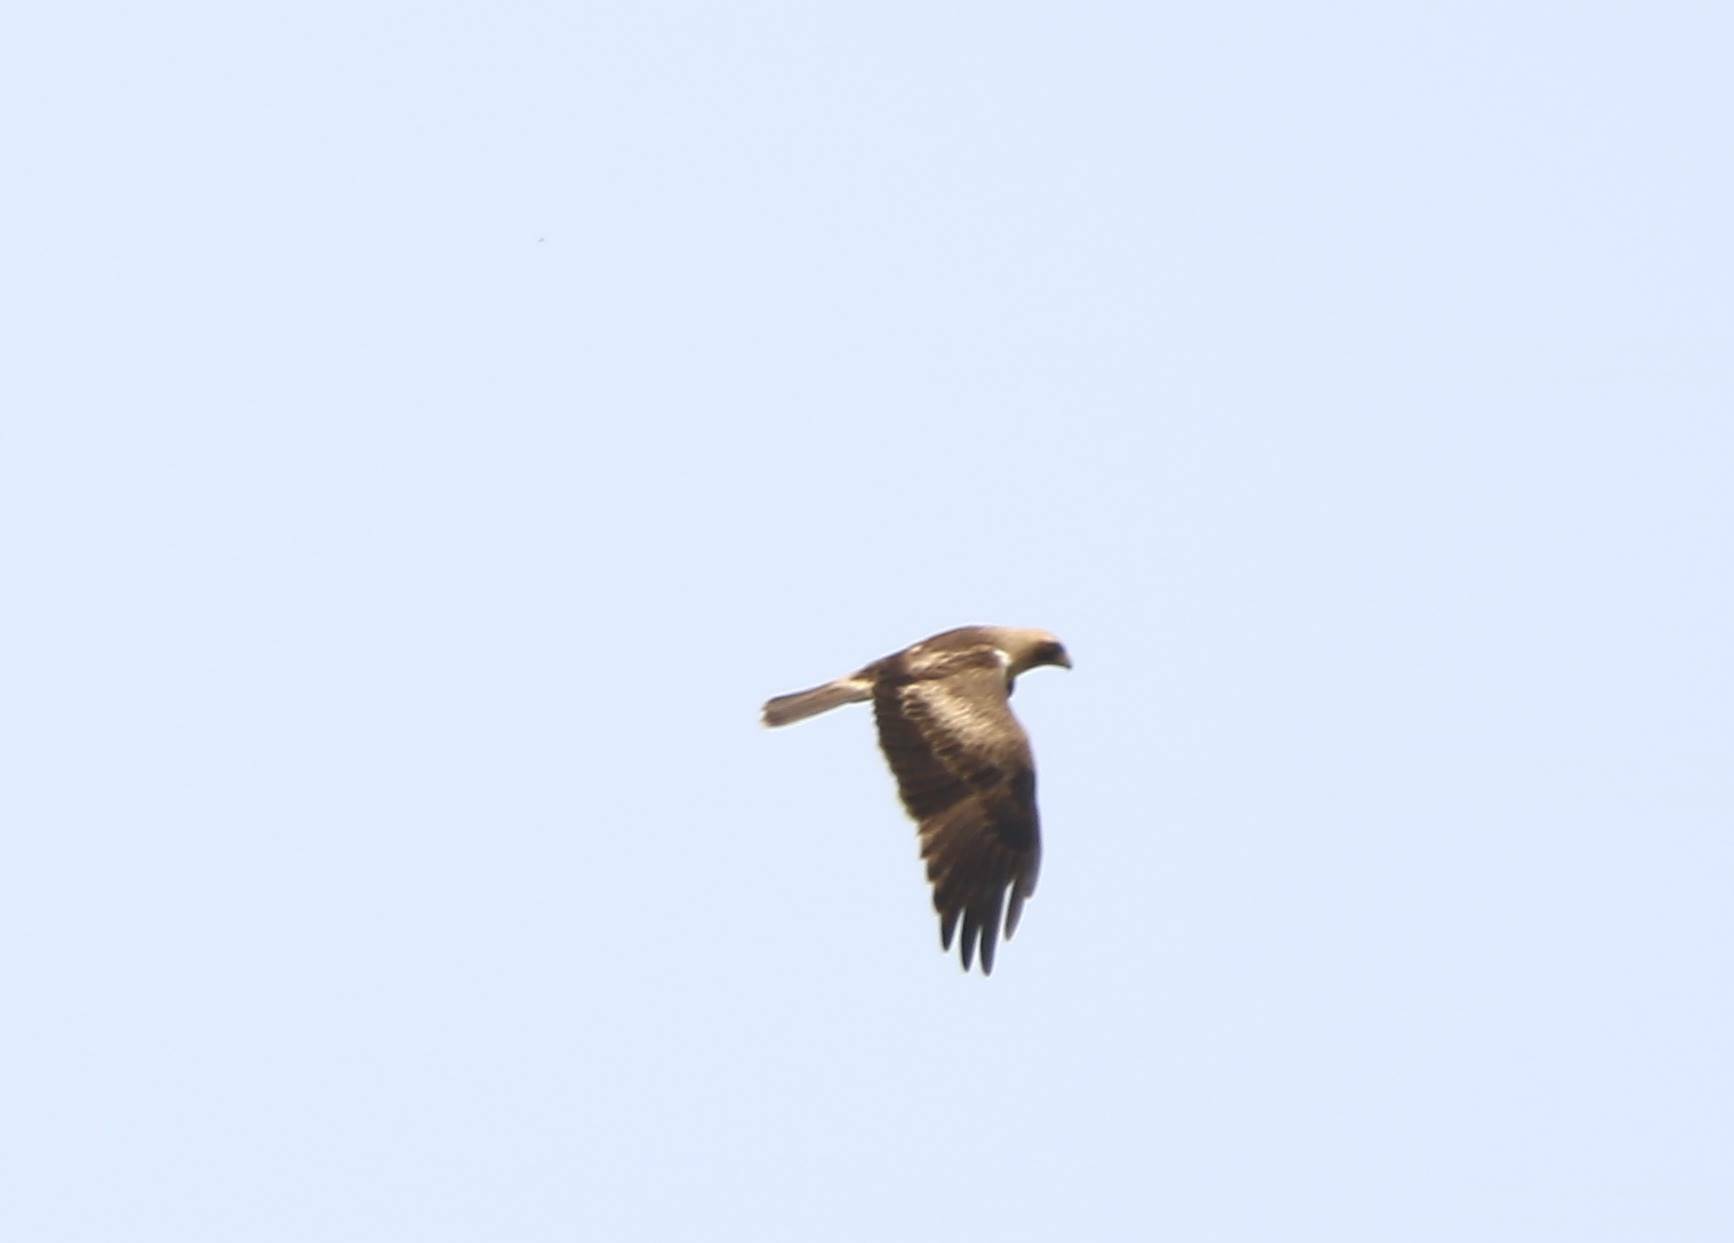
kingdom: Animalia
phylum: Chordata
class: Aves
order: Accipitriformes
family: Accipitridae
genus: Hieraaetus
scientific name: Hieraaetus pennatus
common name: Booted eagle
